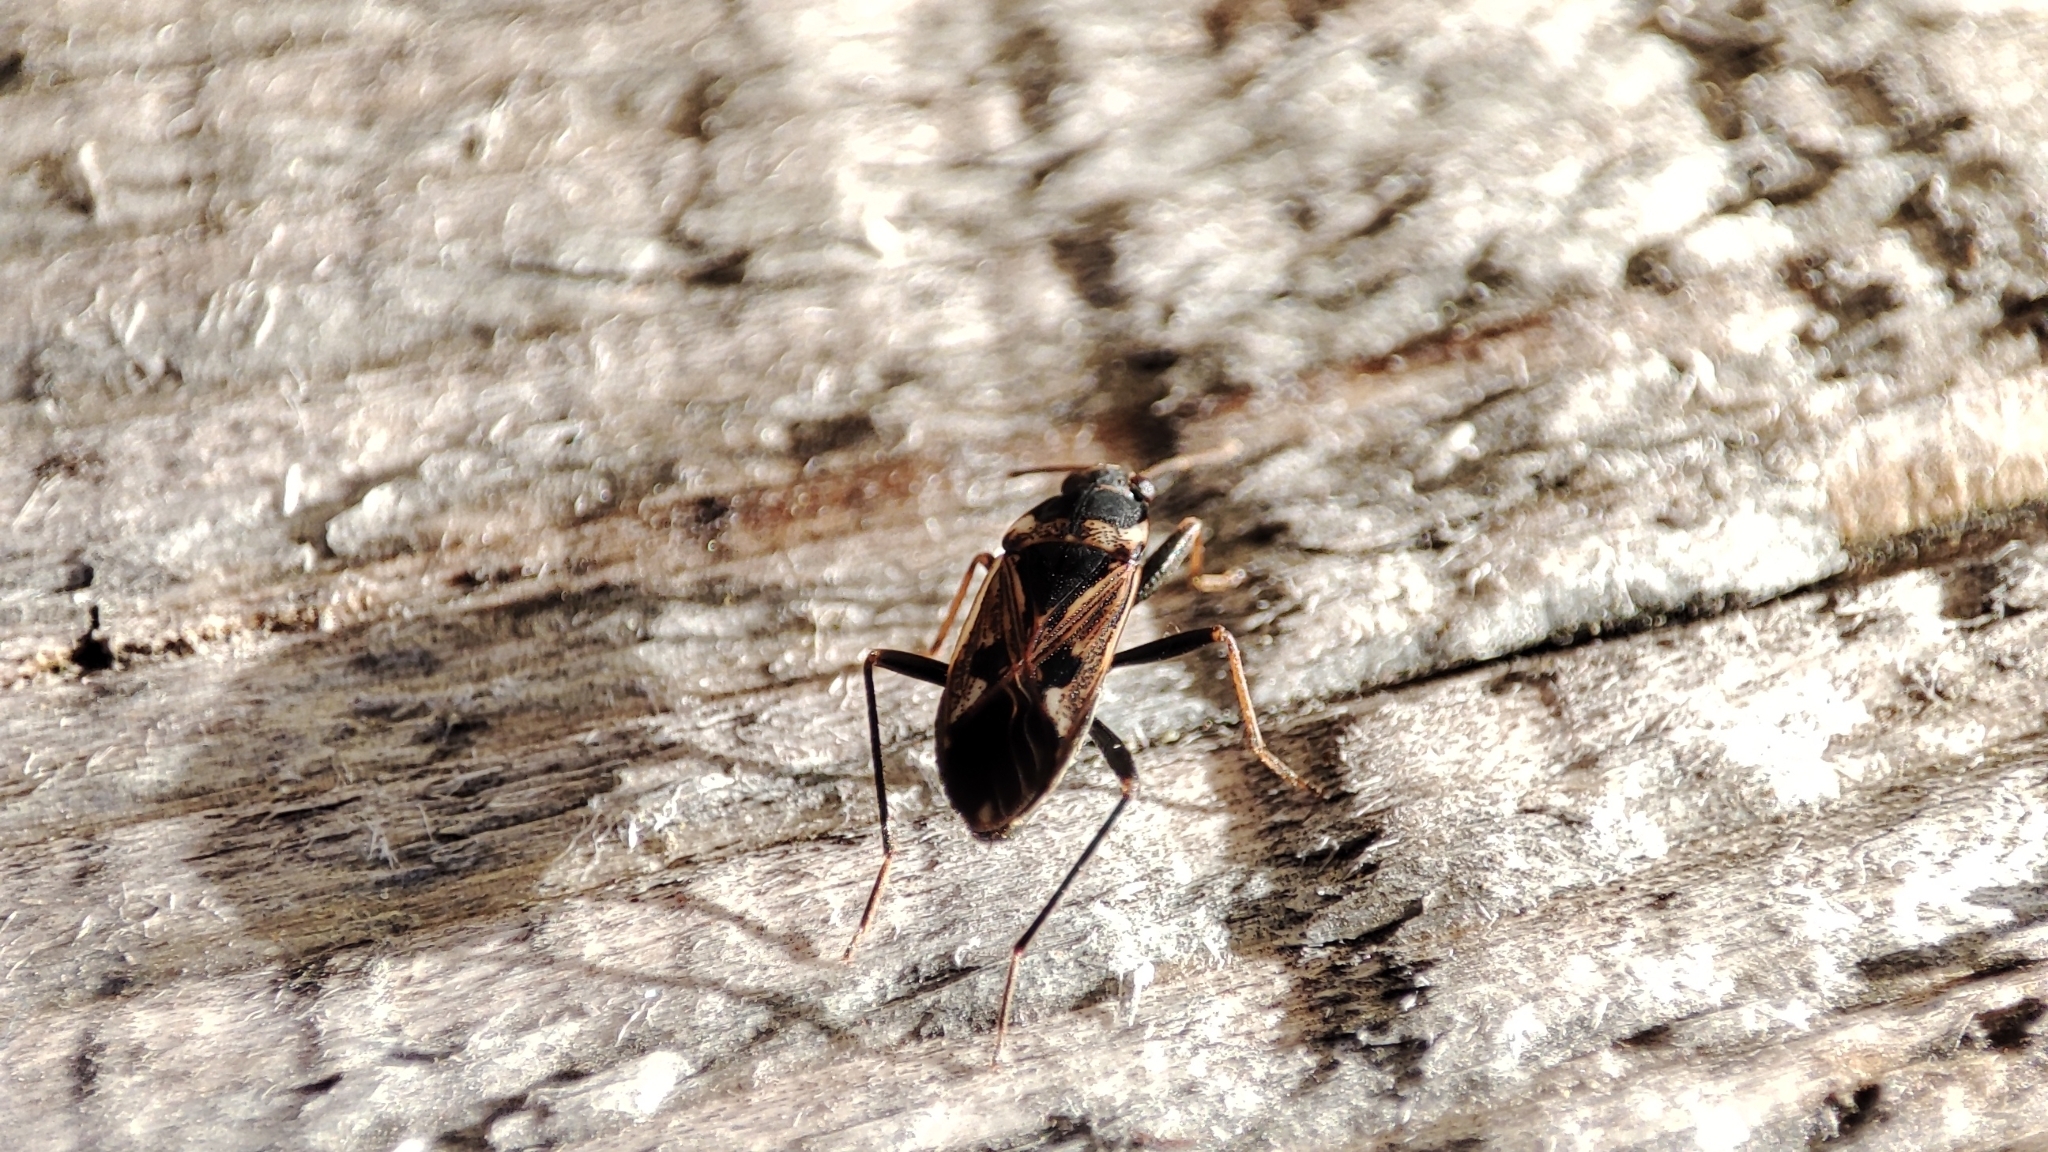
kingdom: Animalia
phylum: Arthropoda
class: Insecta
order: Hemiptera
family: Rhyparochromidae
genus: Rhyparochromus
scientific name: Rhyparochromus vulgaris
